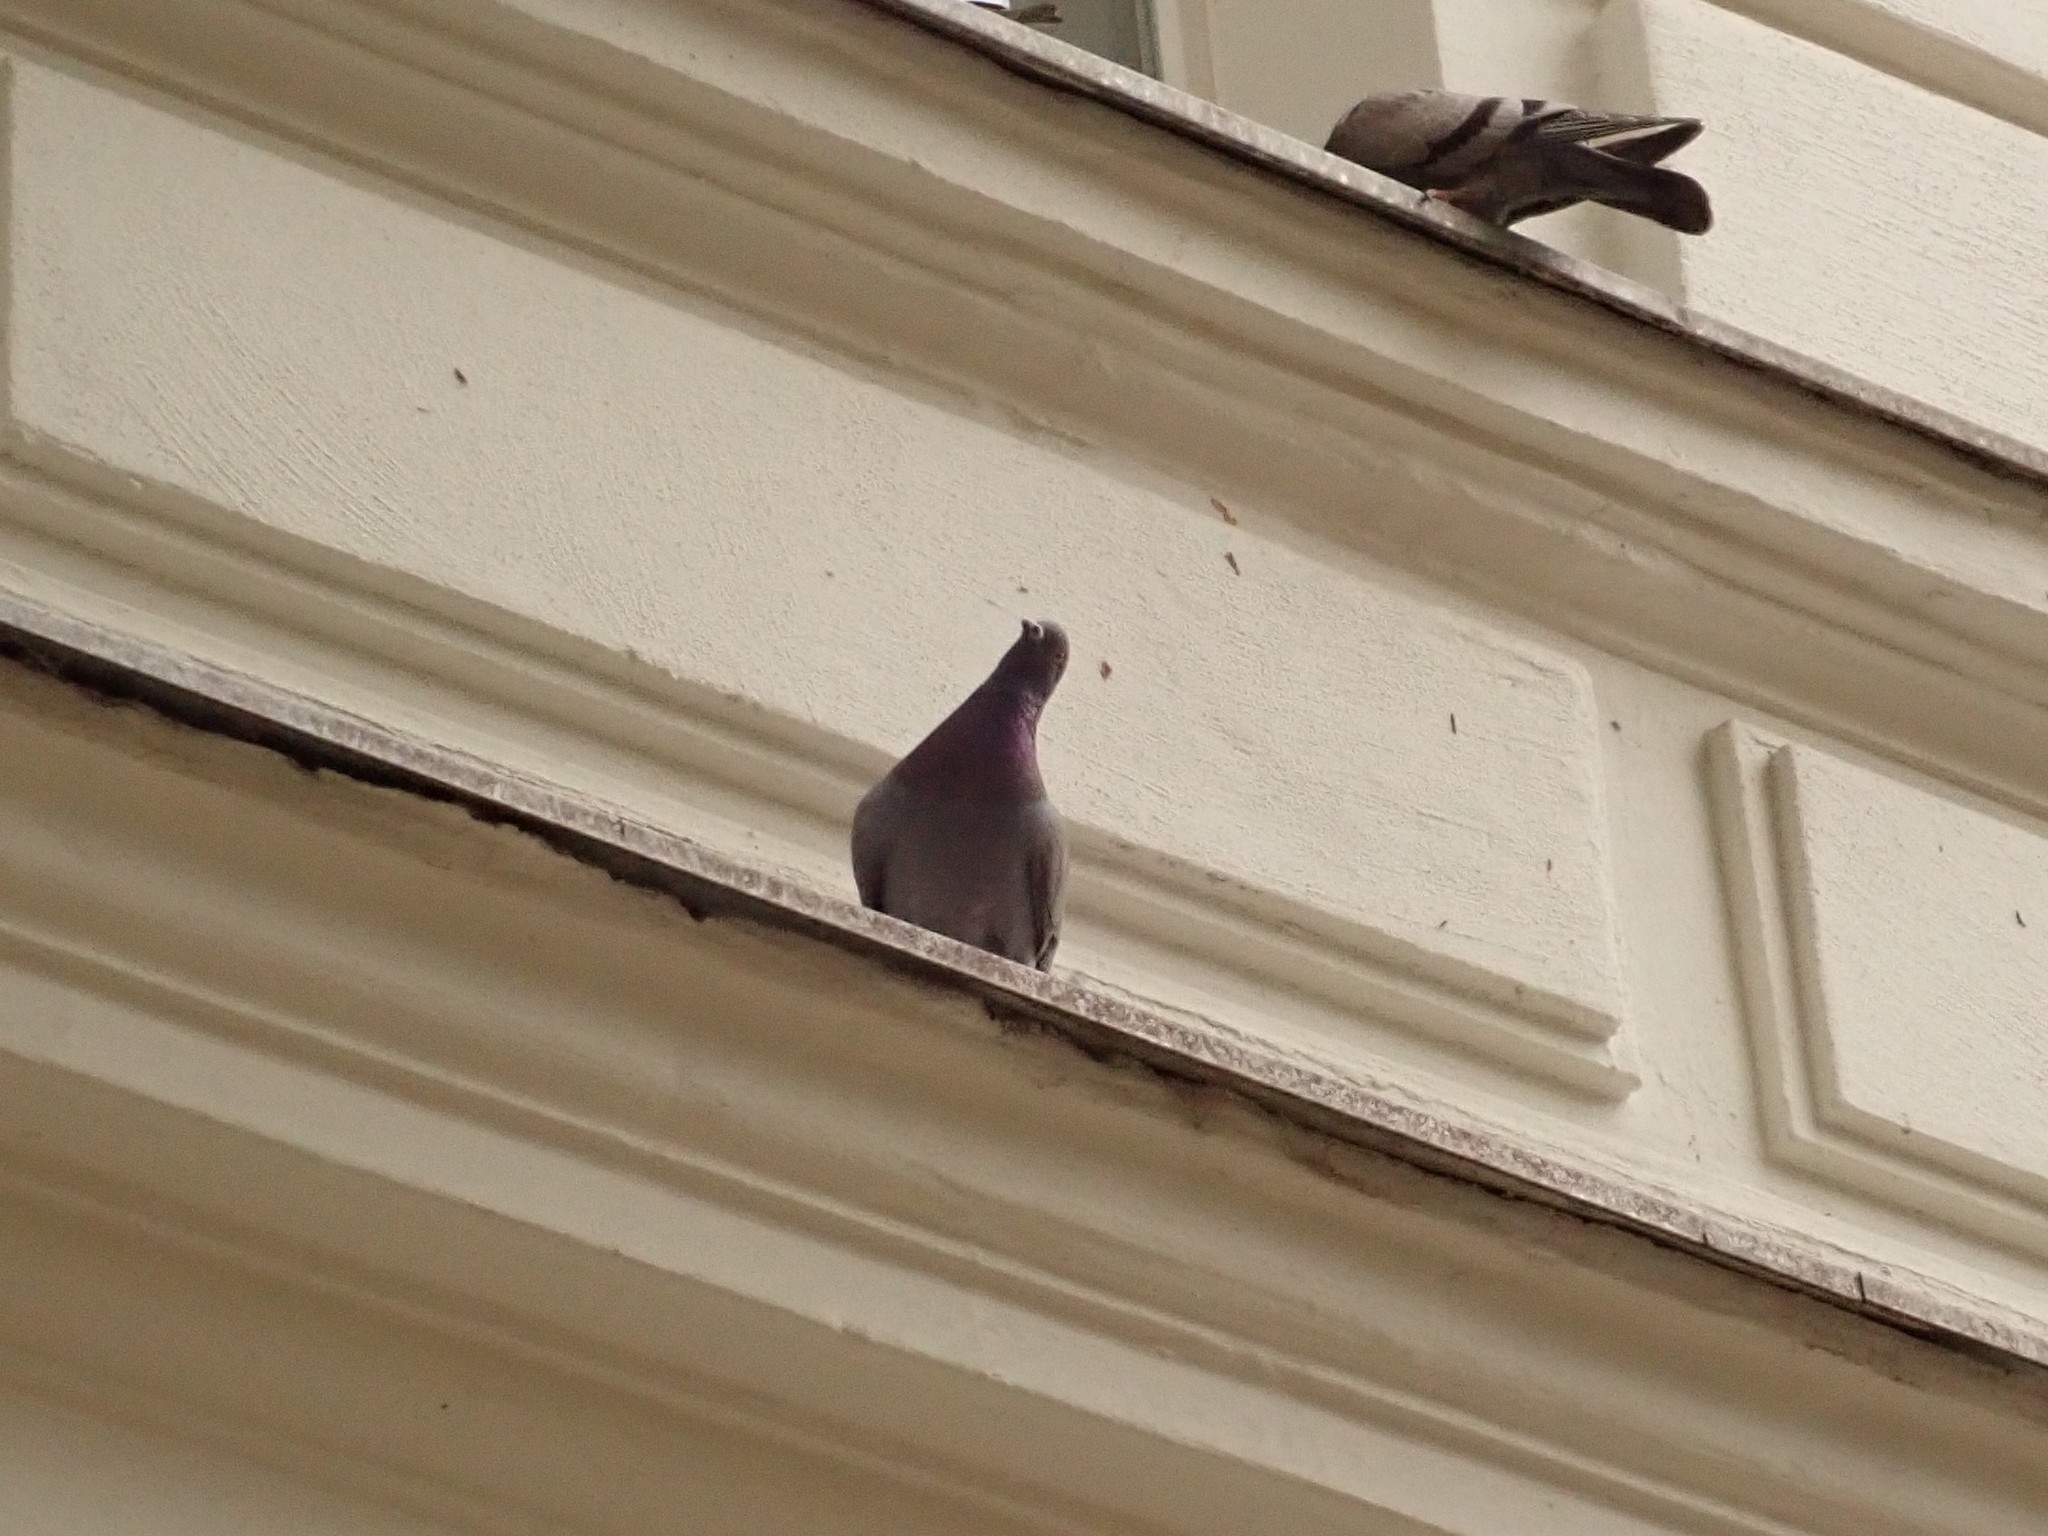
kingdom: Animalia
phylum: Chordata
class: Aves
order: Columbiformes
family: Columbidae
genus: Columba
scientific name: Columba livia
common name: Rock pigeon
